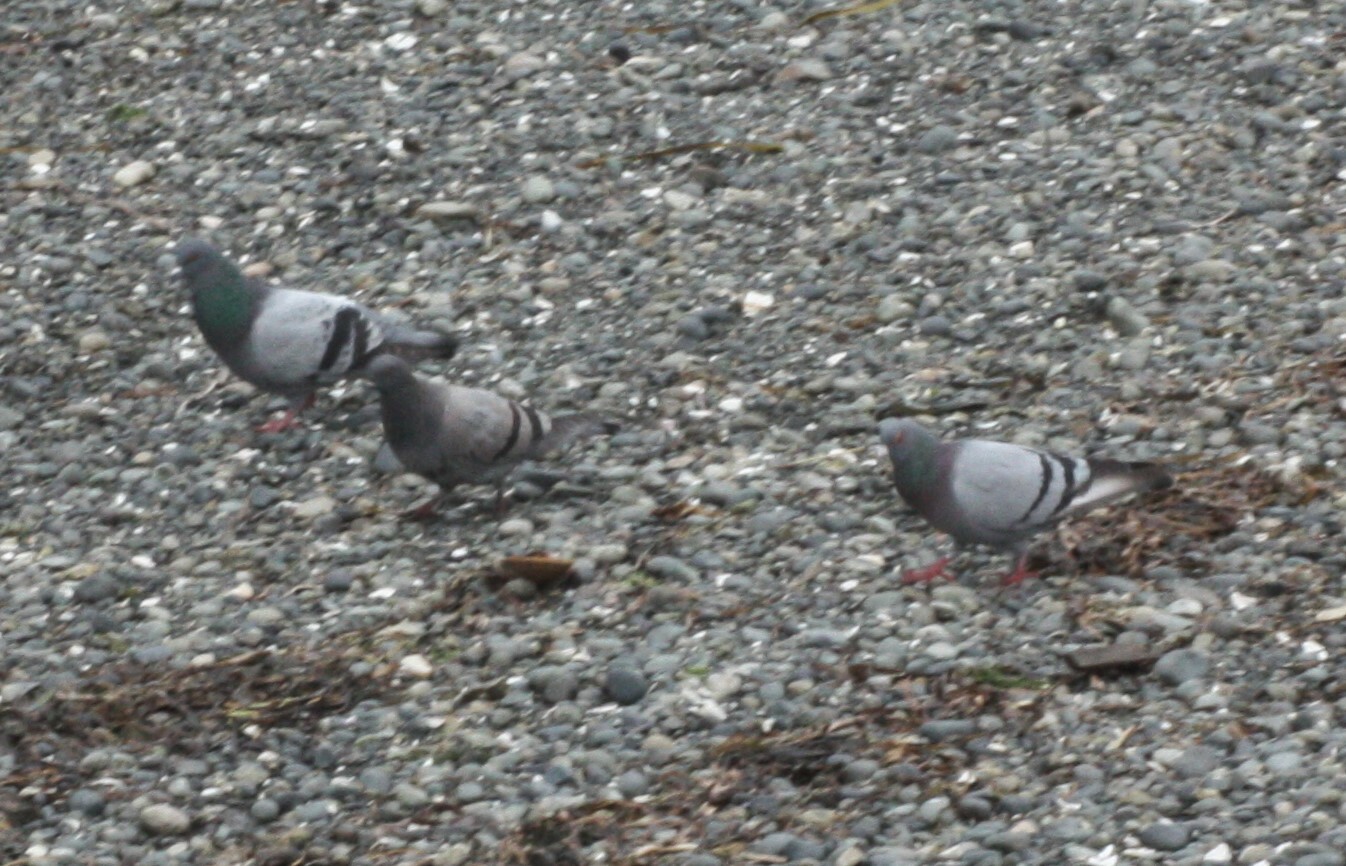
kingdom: Animalia
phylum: Chordata
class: Aves
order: Columbiformes
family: Columbidae
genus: Columba
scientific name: Columba livia
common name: Rock pigeon
